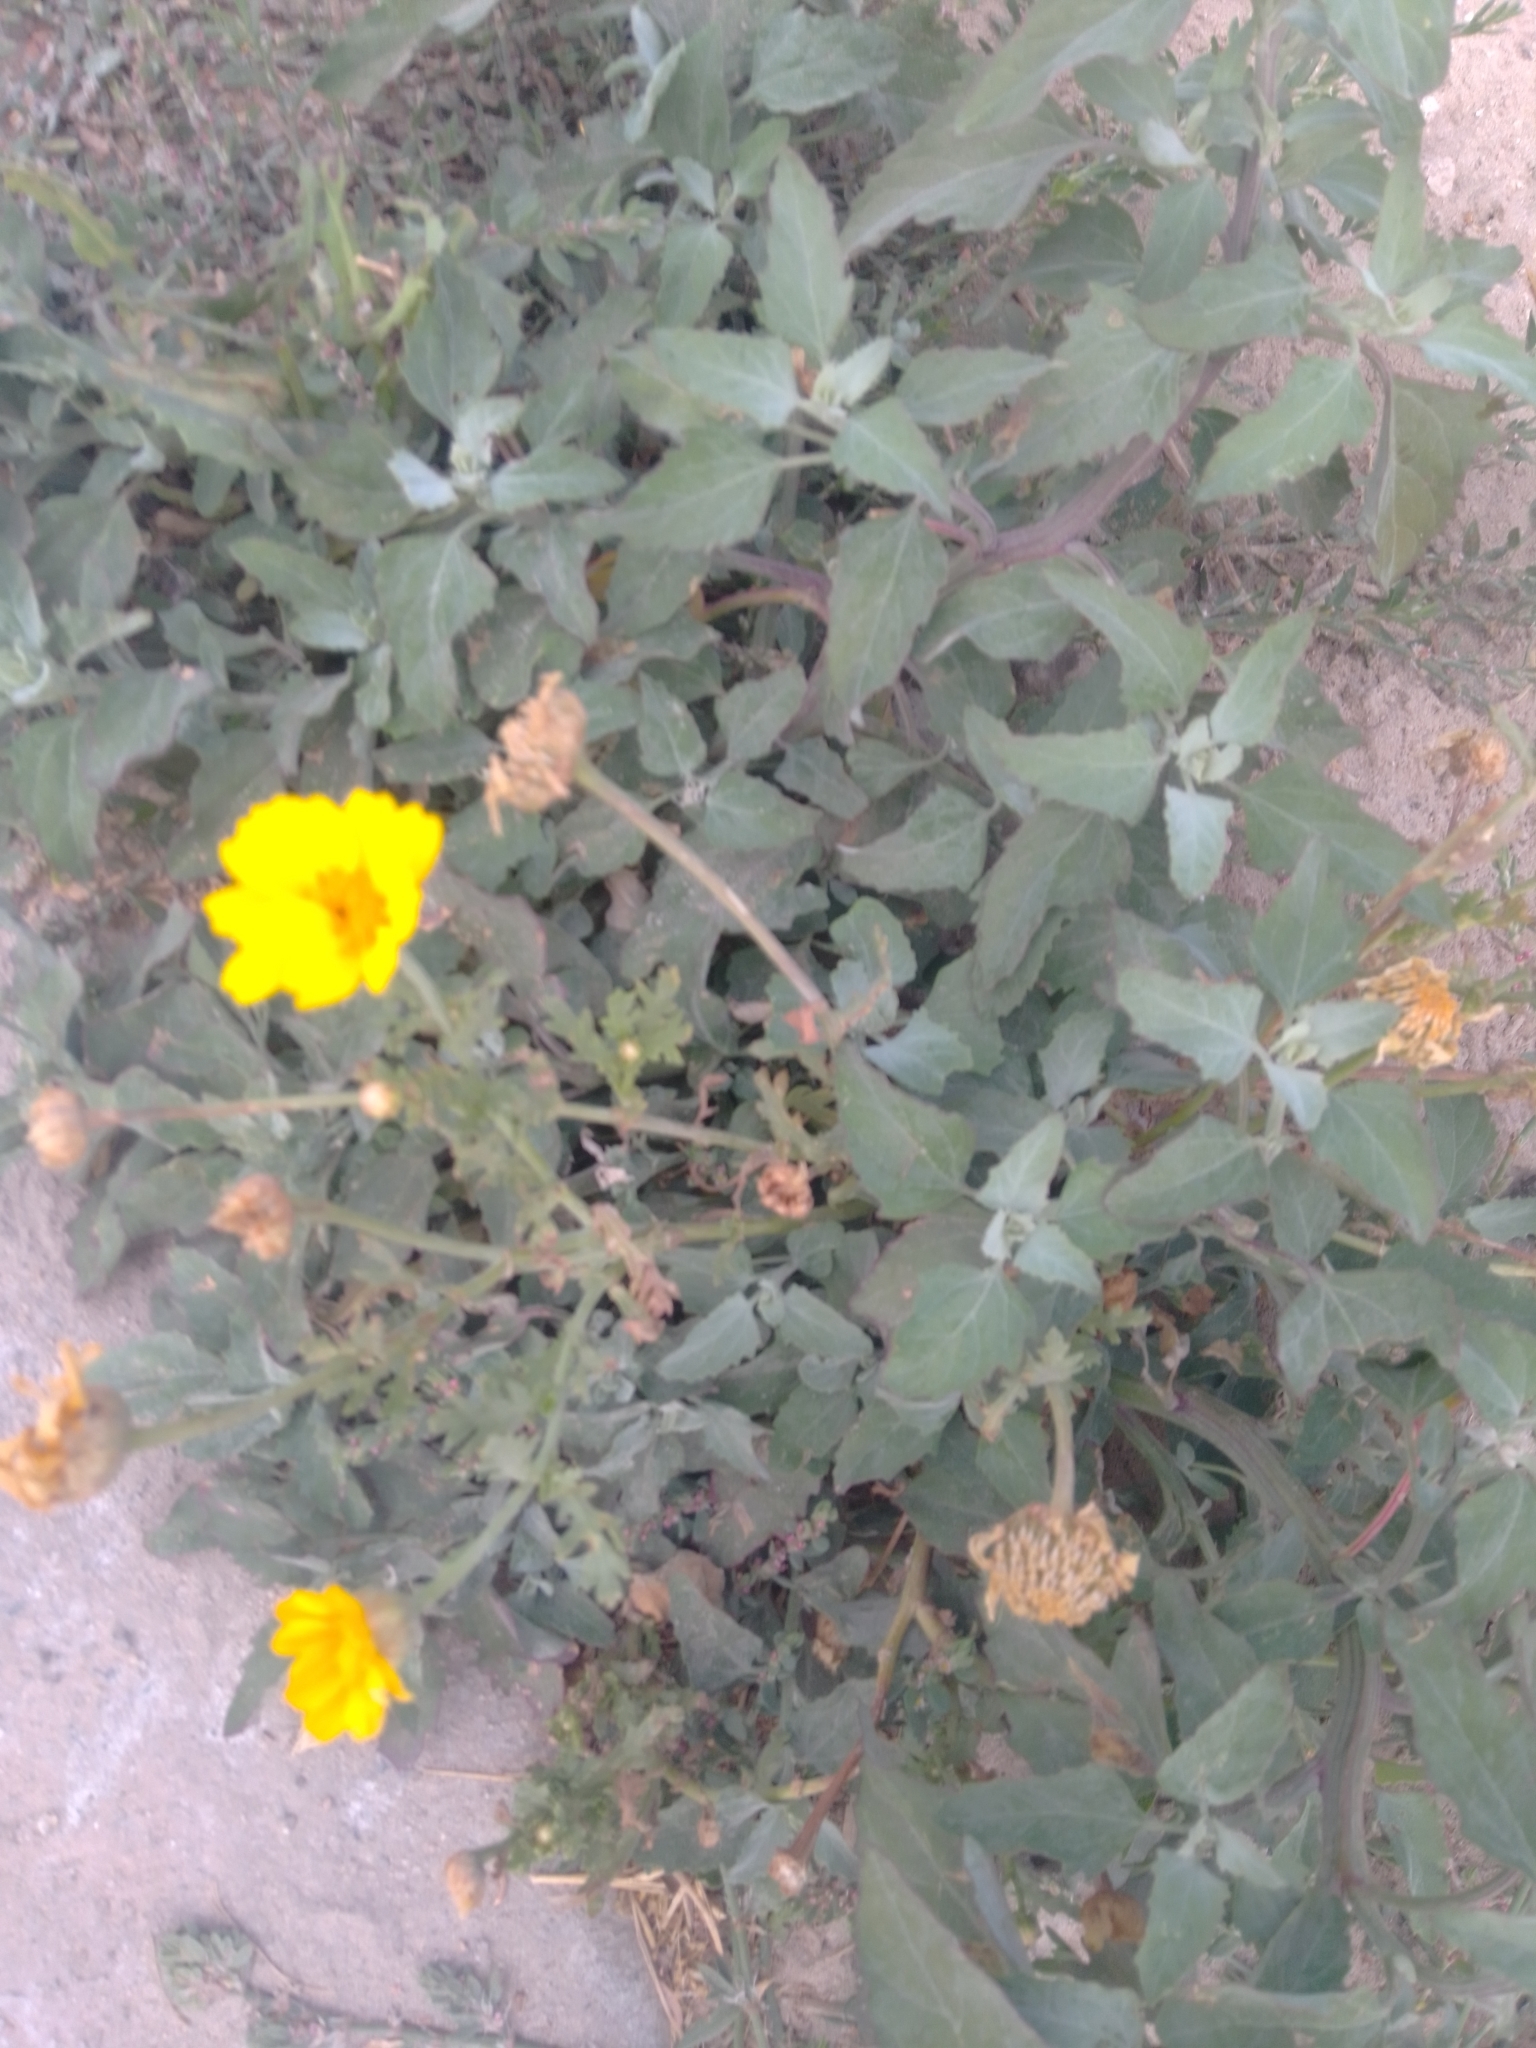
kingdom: Plantae
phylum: Tracheophyta
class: Magnoliopsida
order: Asterales
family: Asteraceae
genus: Glebionis
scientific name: Glebionis coronaria
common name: Crowndaisy
